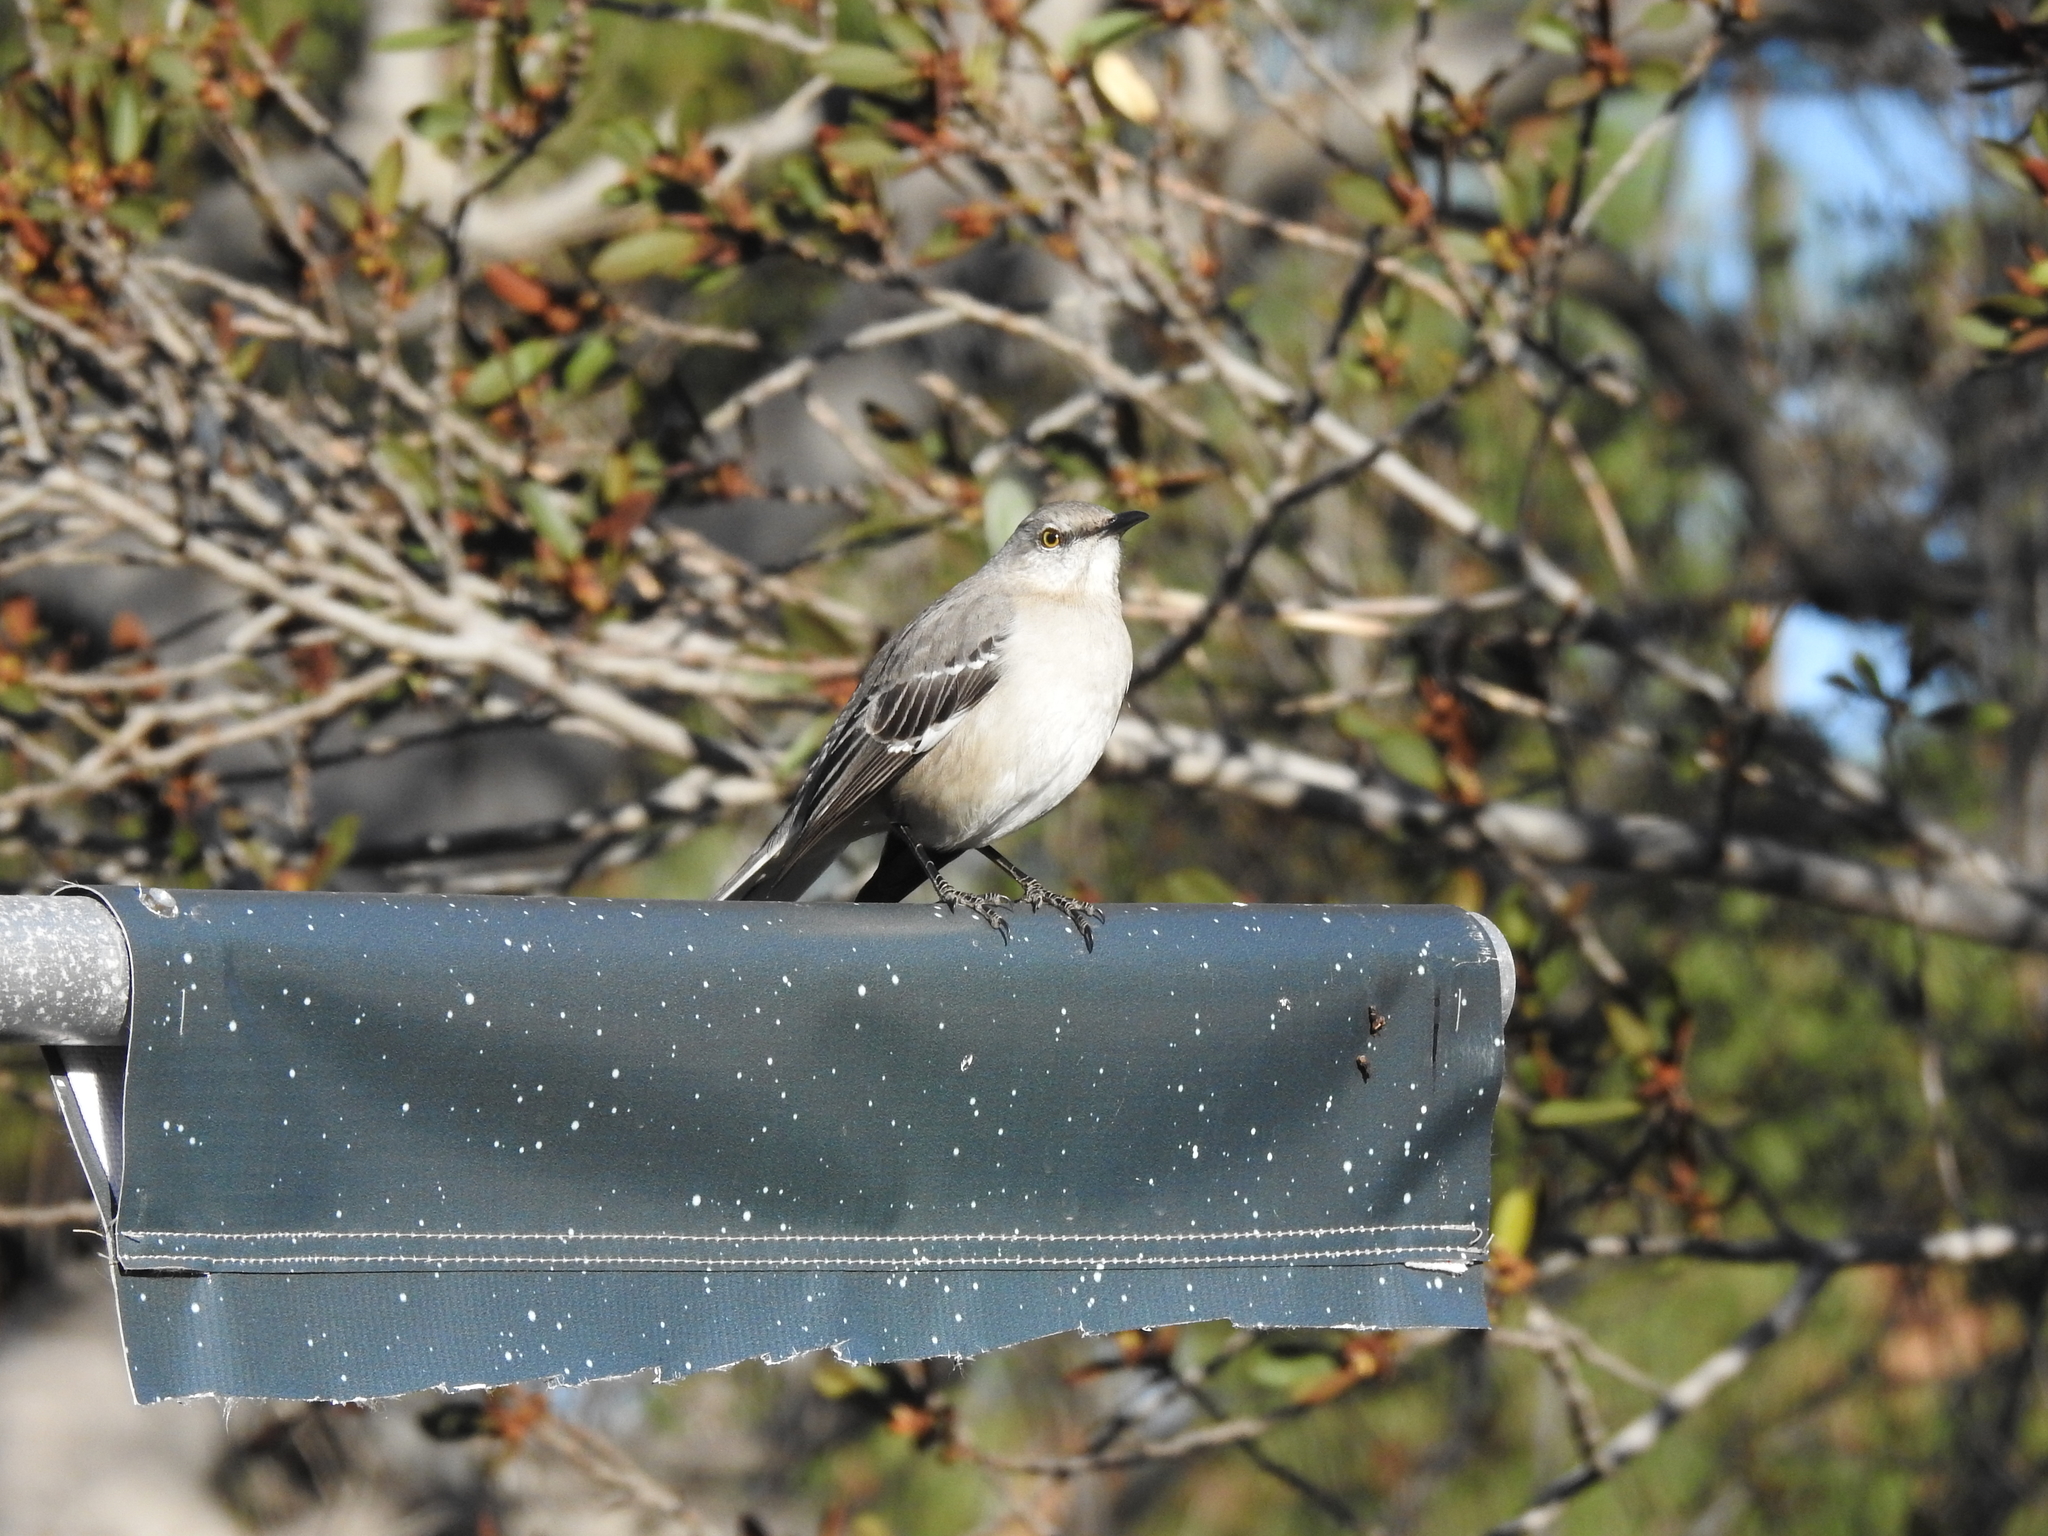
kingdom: Animalia
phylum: Chordata
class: Aves
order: Passeriformes
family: Mimidae
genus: Mimus
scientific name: Mimus polyglottos
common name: Northern mockingbird
